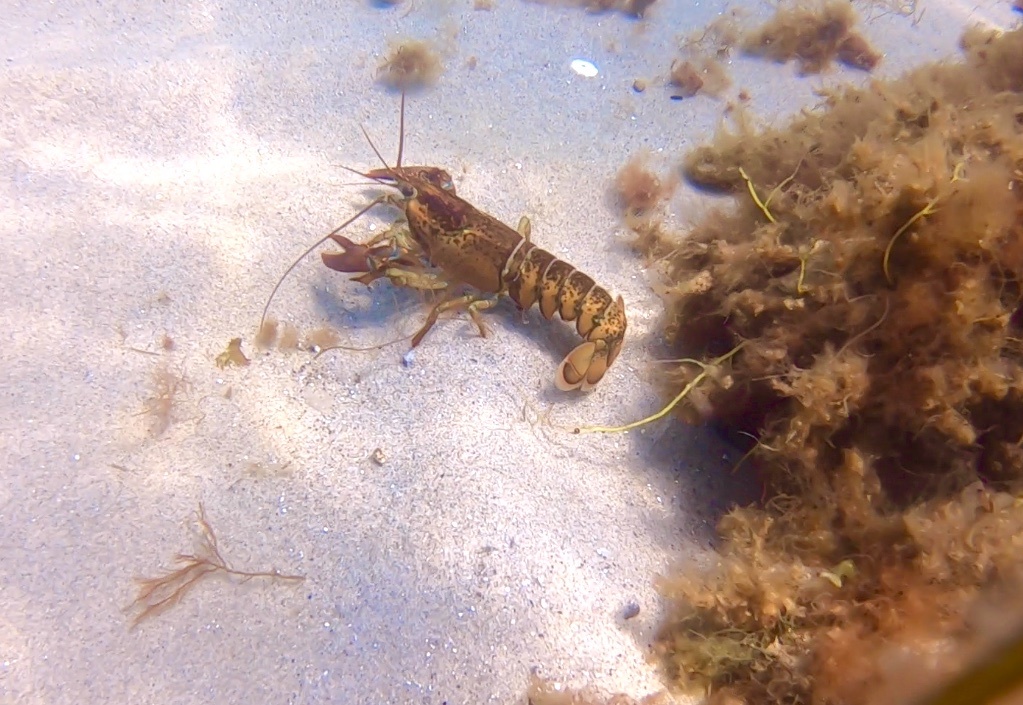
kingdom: Animalia
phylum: Arthropoda
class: Malacostraca
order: Decapoda
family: Nephropidae
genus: Homarus
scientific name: Homarus americanus
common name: American lobster
